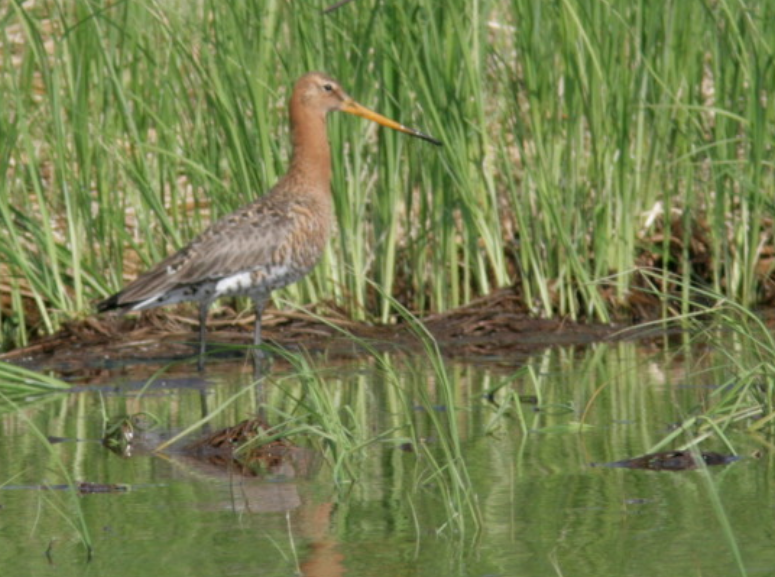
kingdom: Animalia
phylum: Chordata
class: Aves
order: Charadriiformes
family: Scolopacidae
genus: Limosa
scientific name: Limosa limosa
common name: Black-tailed godwit
